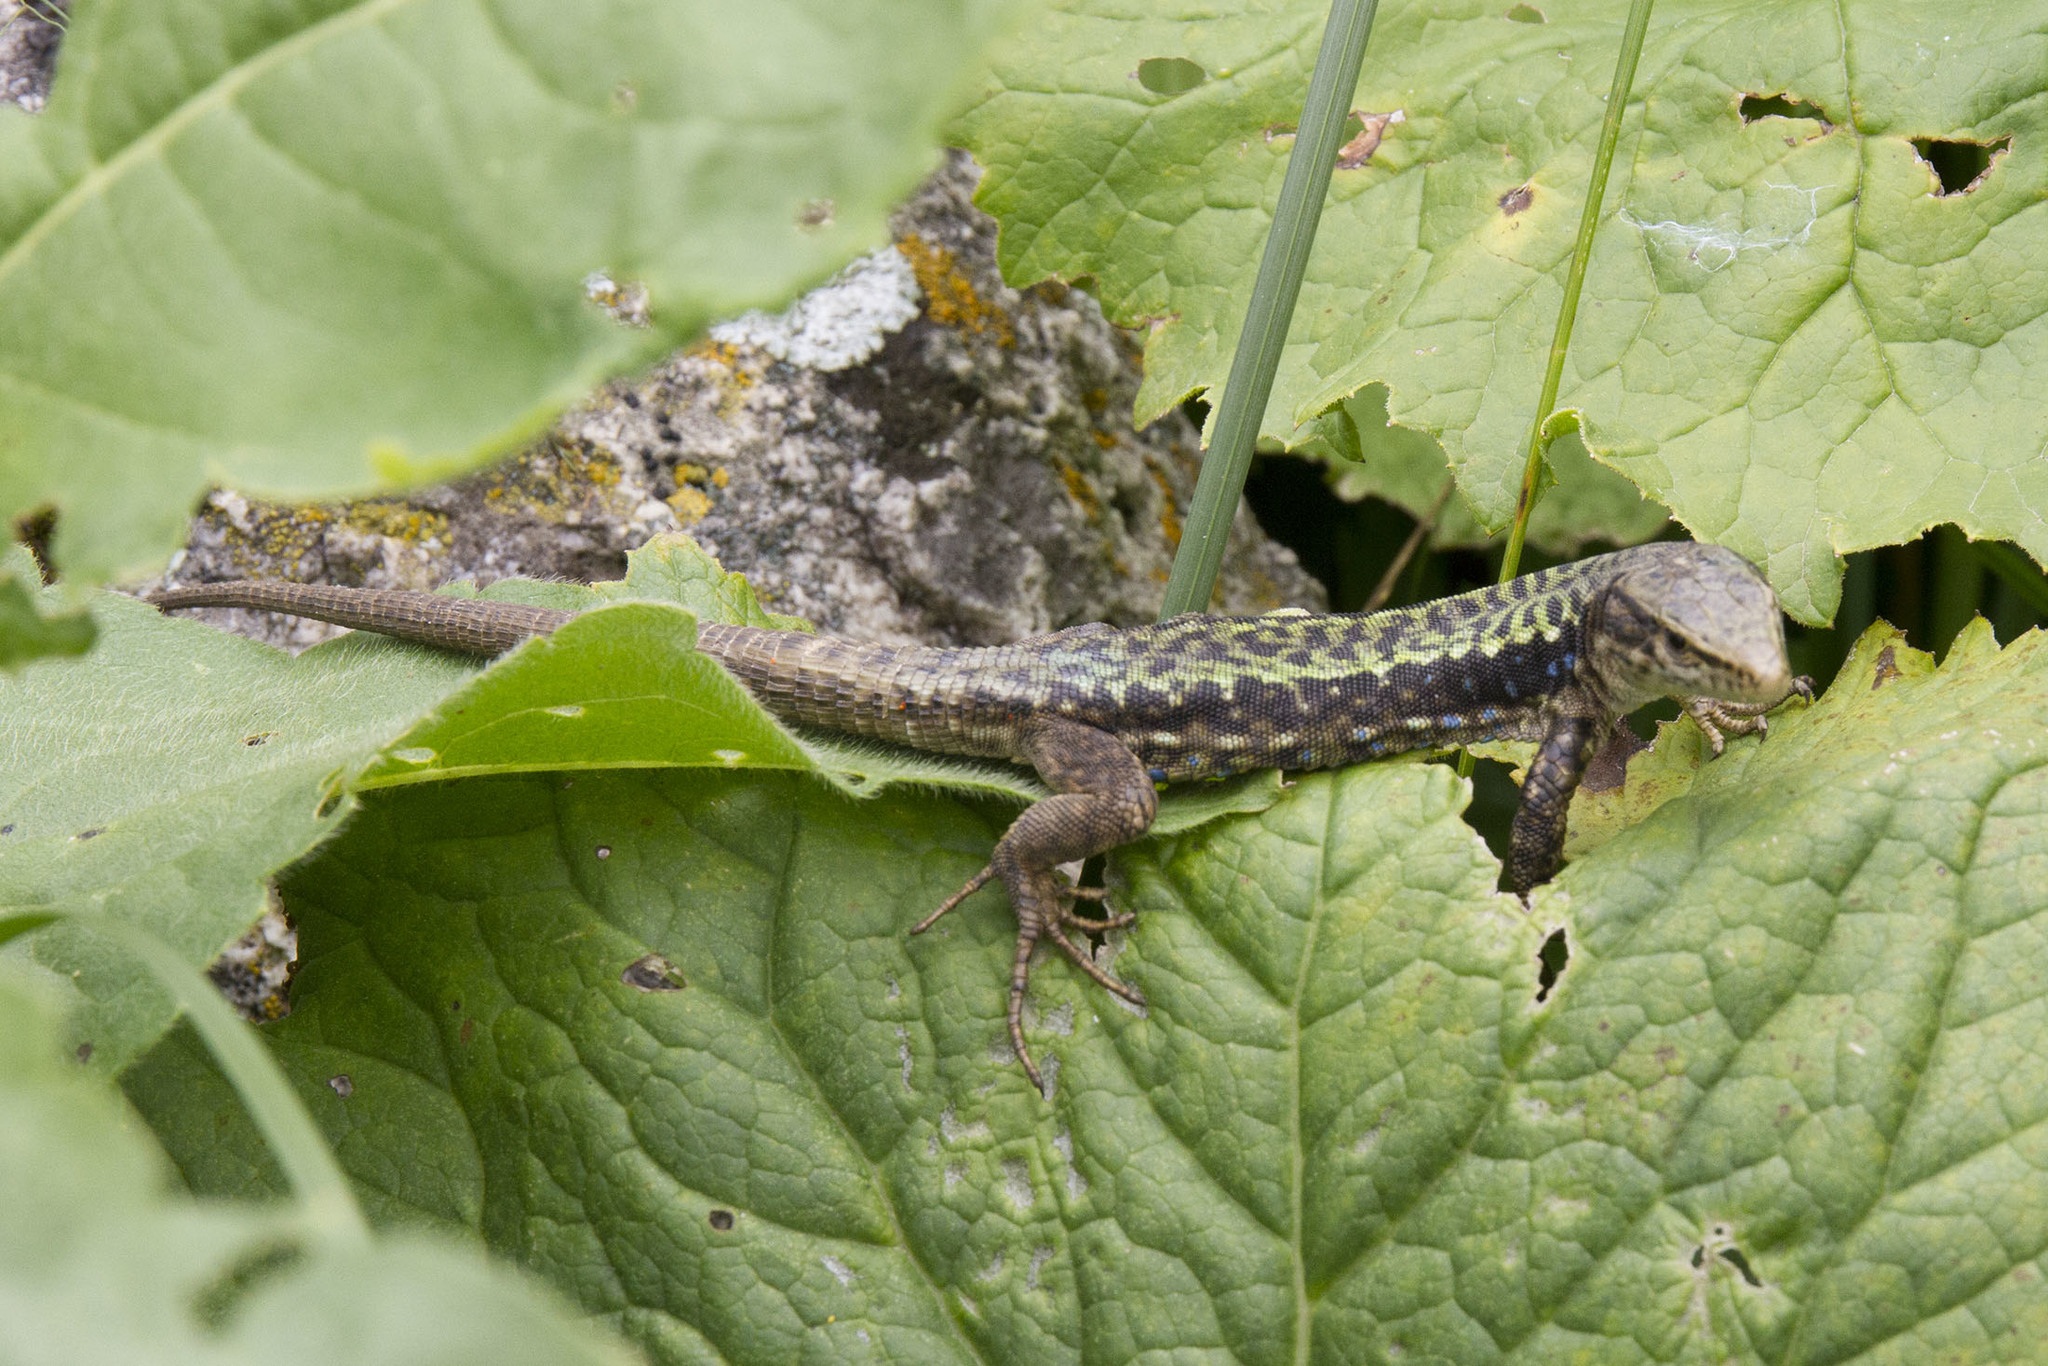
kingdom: Animalia
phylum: Chordata
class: Squamata
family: Lacertidae
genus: Darevskia
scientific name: Darevskia brauneri
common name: Brauner's rock lizard
